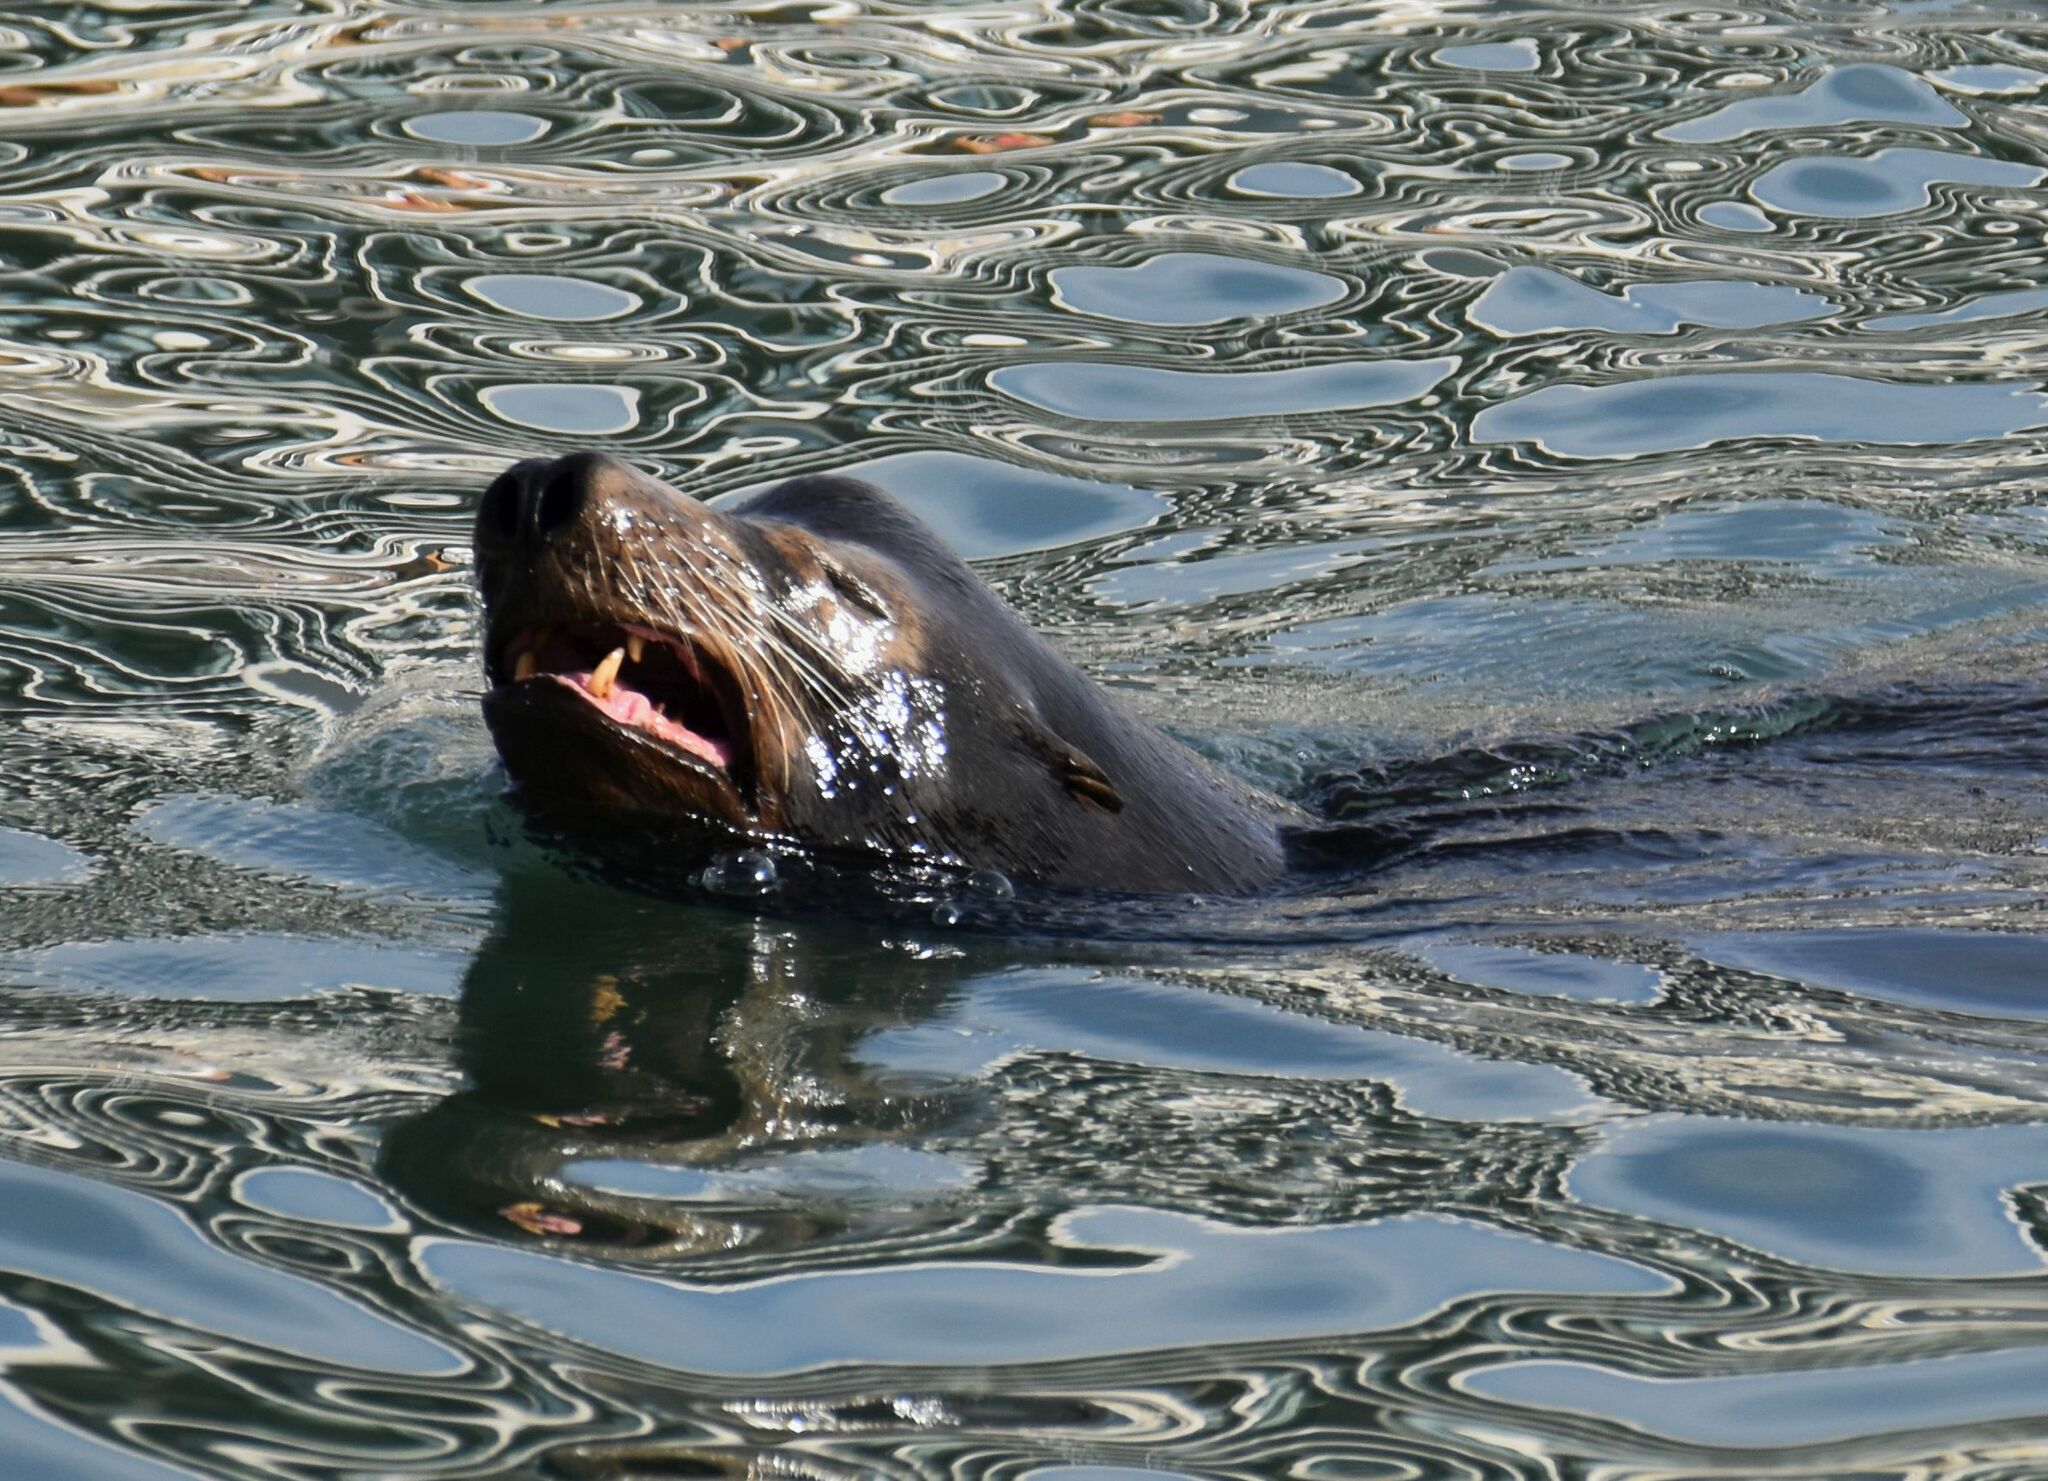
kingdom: Animalia
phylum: Chordata
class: Mammalia
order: Carnivora
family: Otariidae
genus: Zalophus
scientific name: Zalophus californianus
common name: California sea lion
